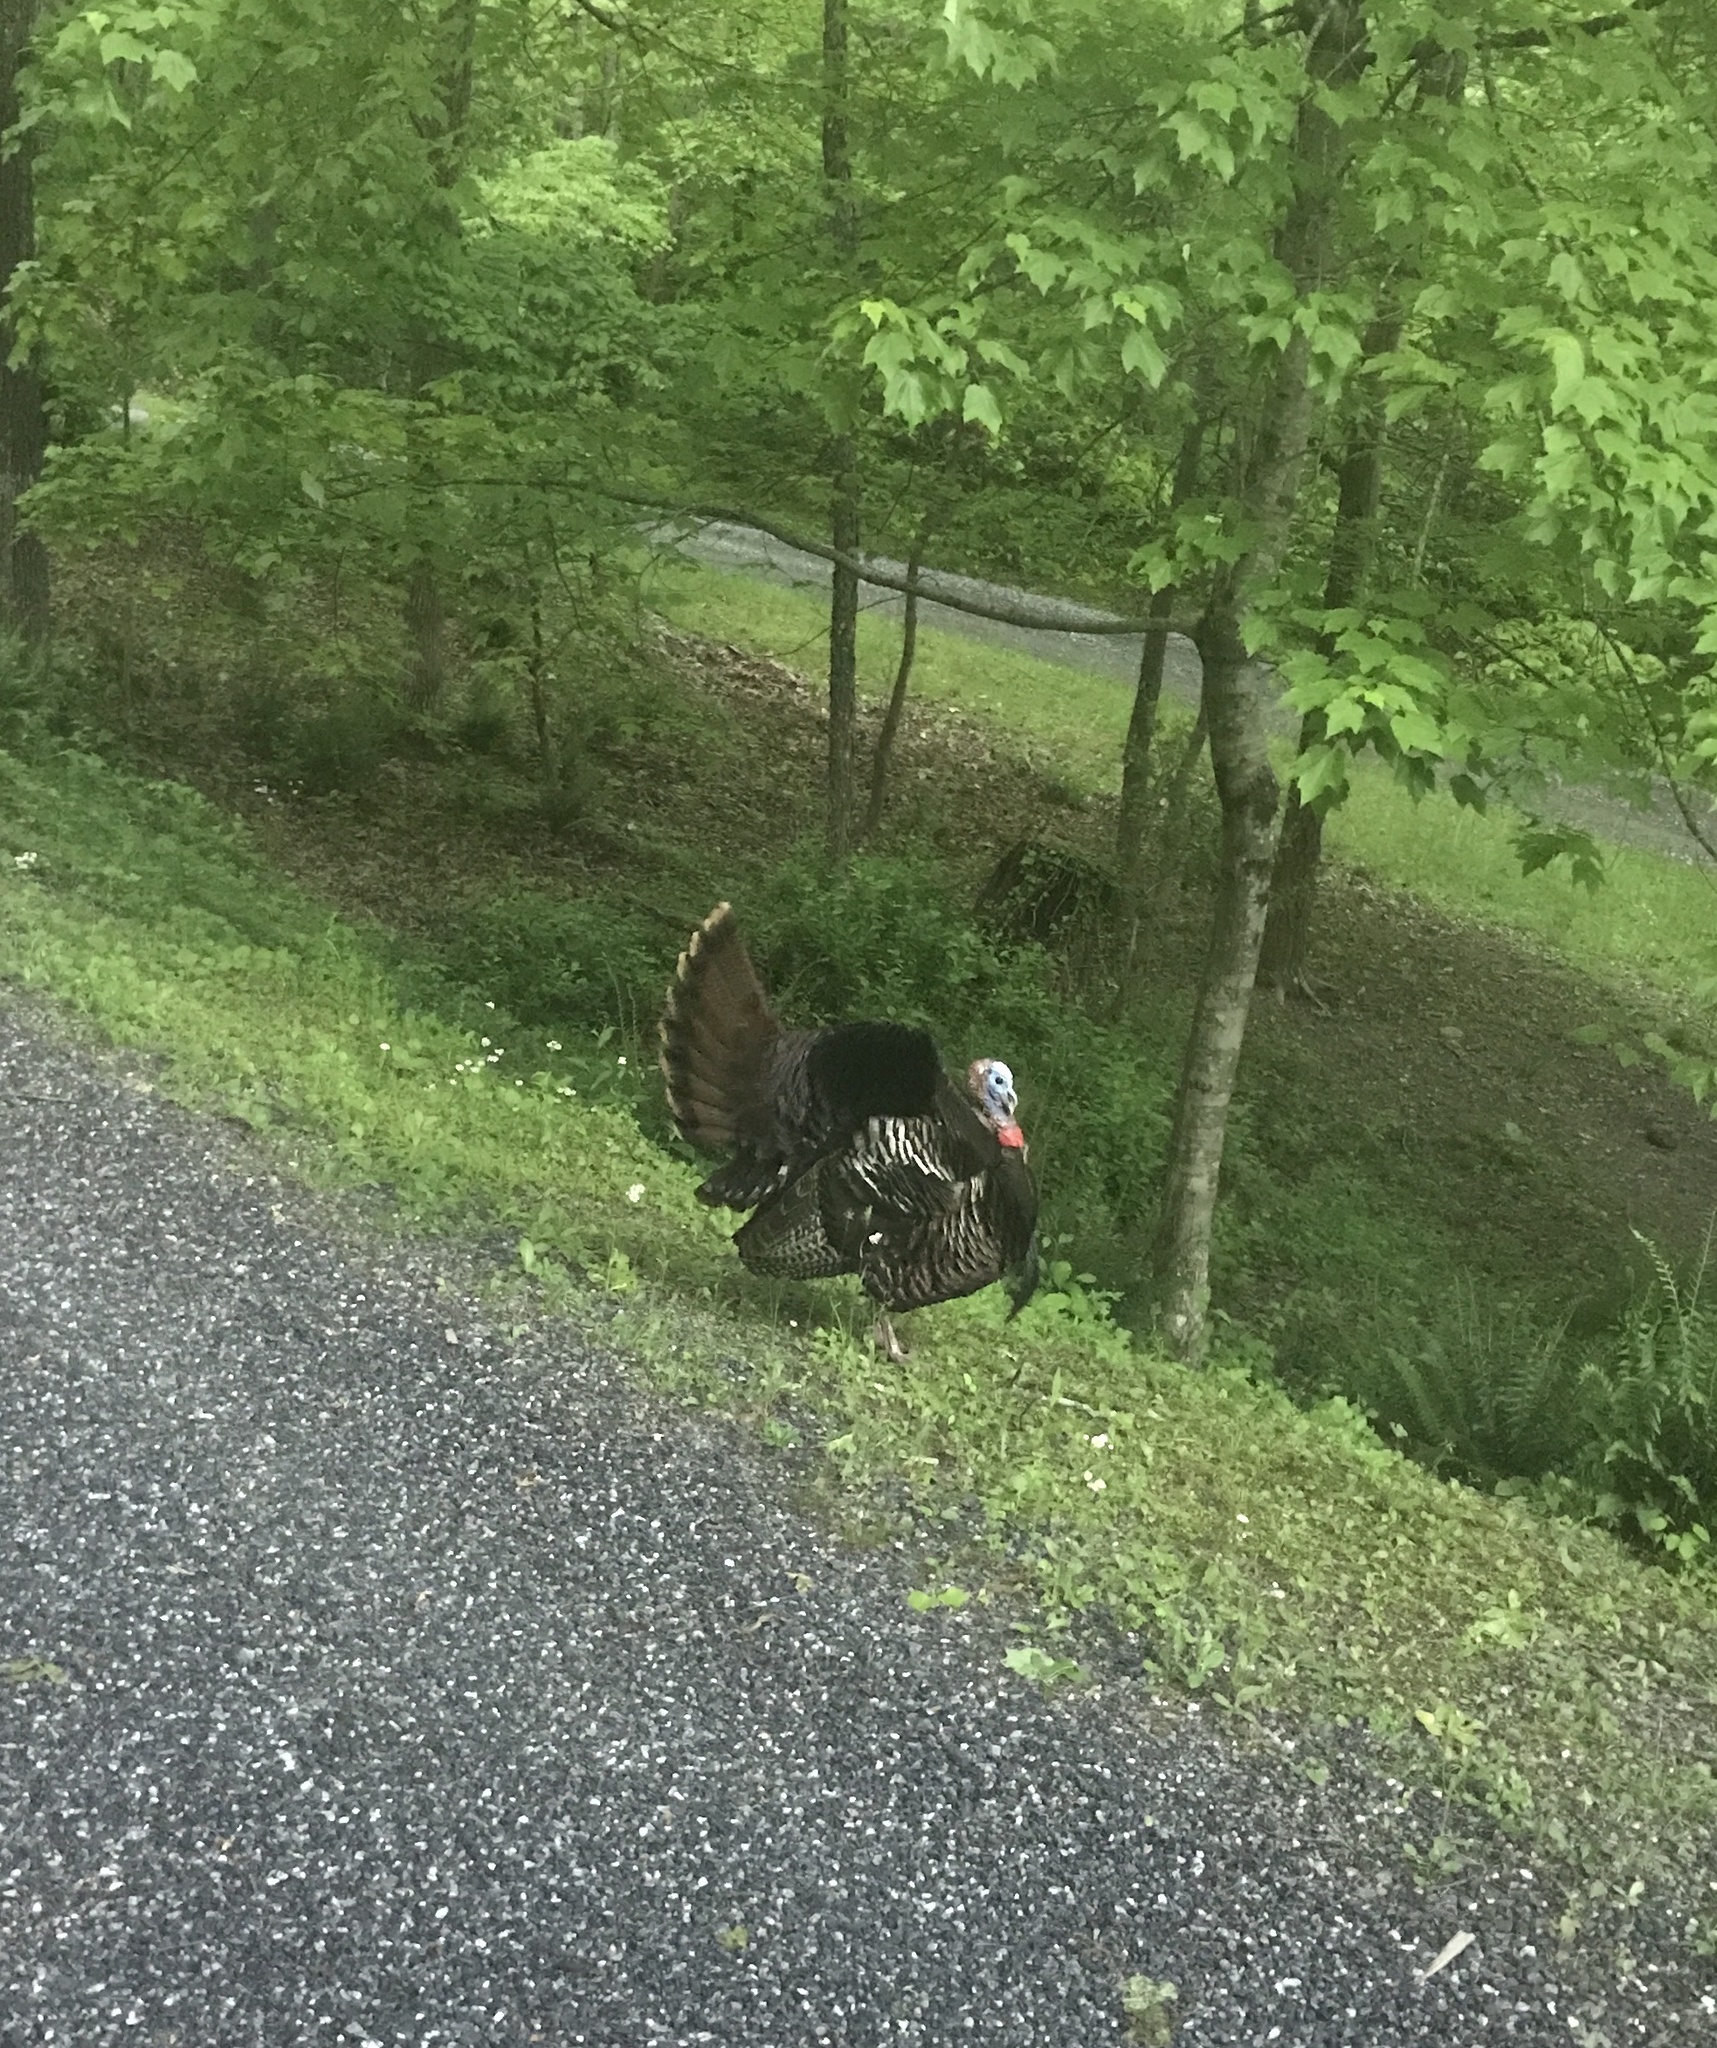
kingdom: Animalia
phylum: Chordata
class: Aves
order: Galliformes
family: Phasianidae
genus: Meleagris
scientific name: Meleagris gallopavo
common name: Wild turkey
